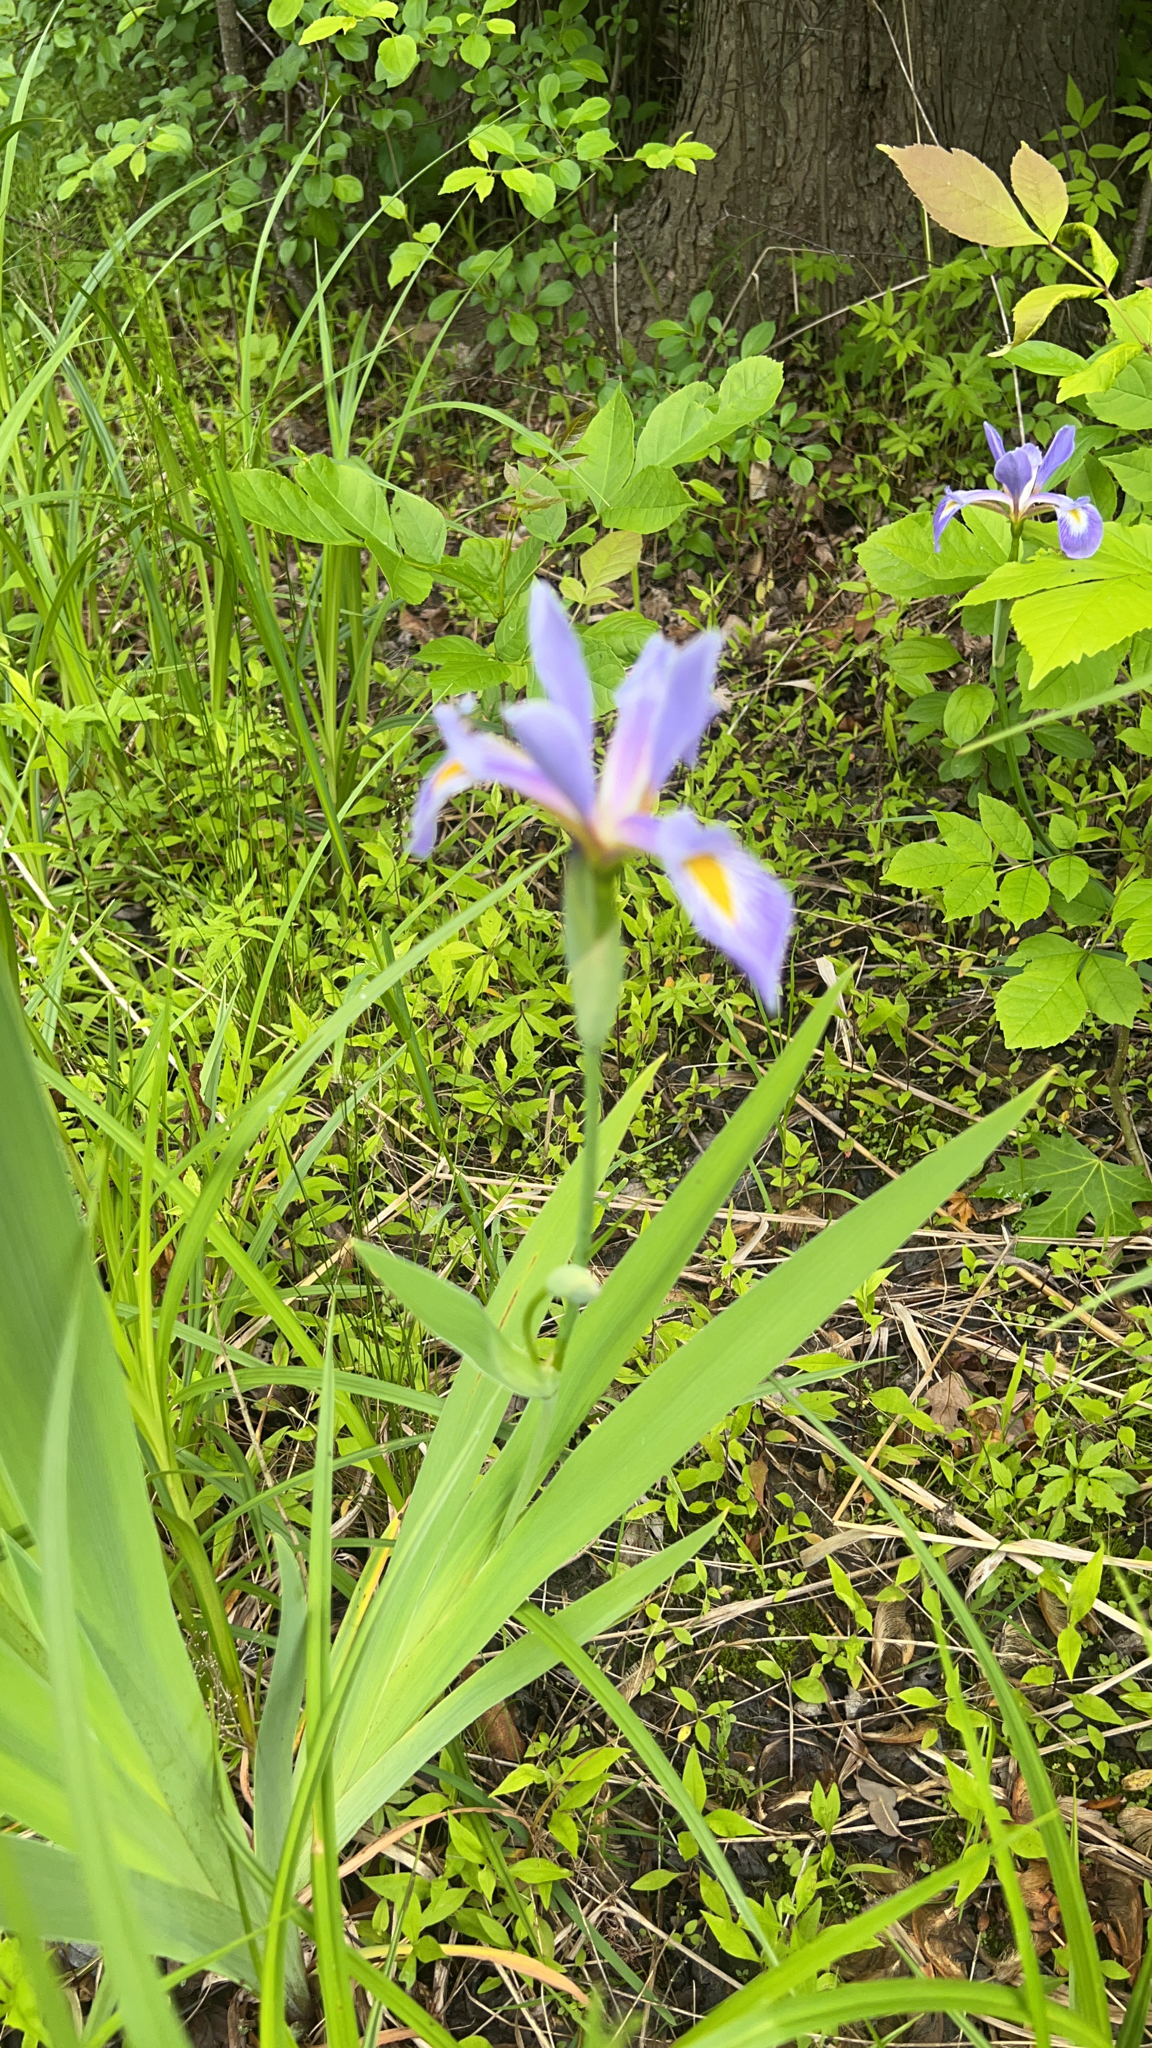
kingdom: Plantae
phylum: Tracheophyta
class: Liliopsida
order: Asparagales
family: Iridaceae
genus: Iris
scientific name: Iris virginica
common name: Southern blue flag
